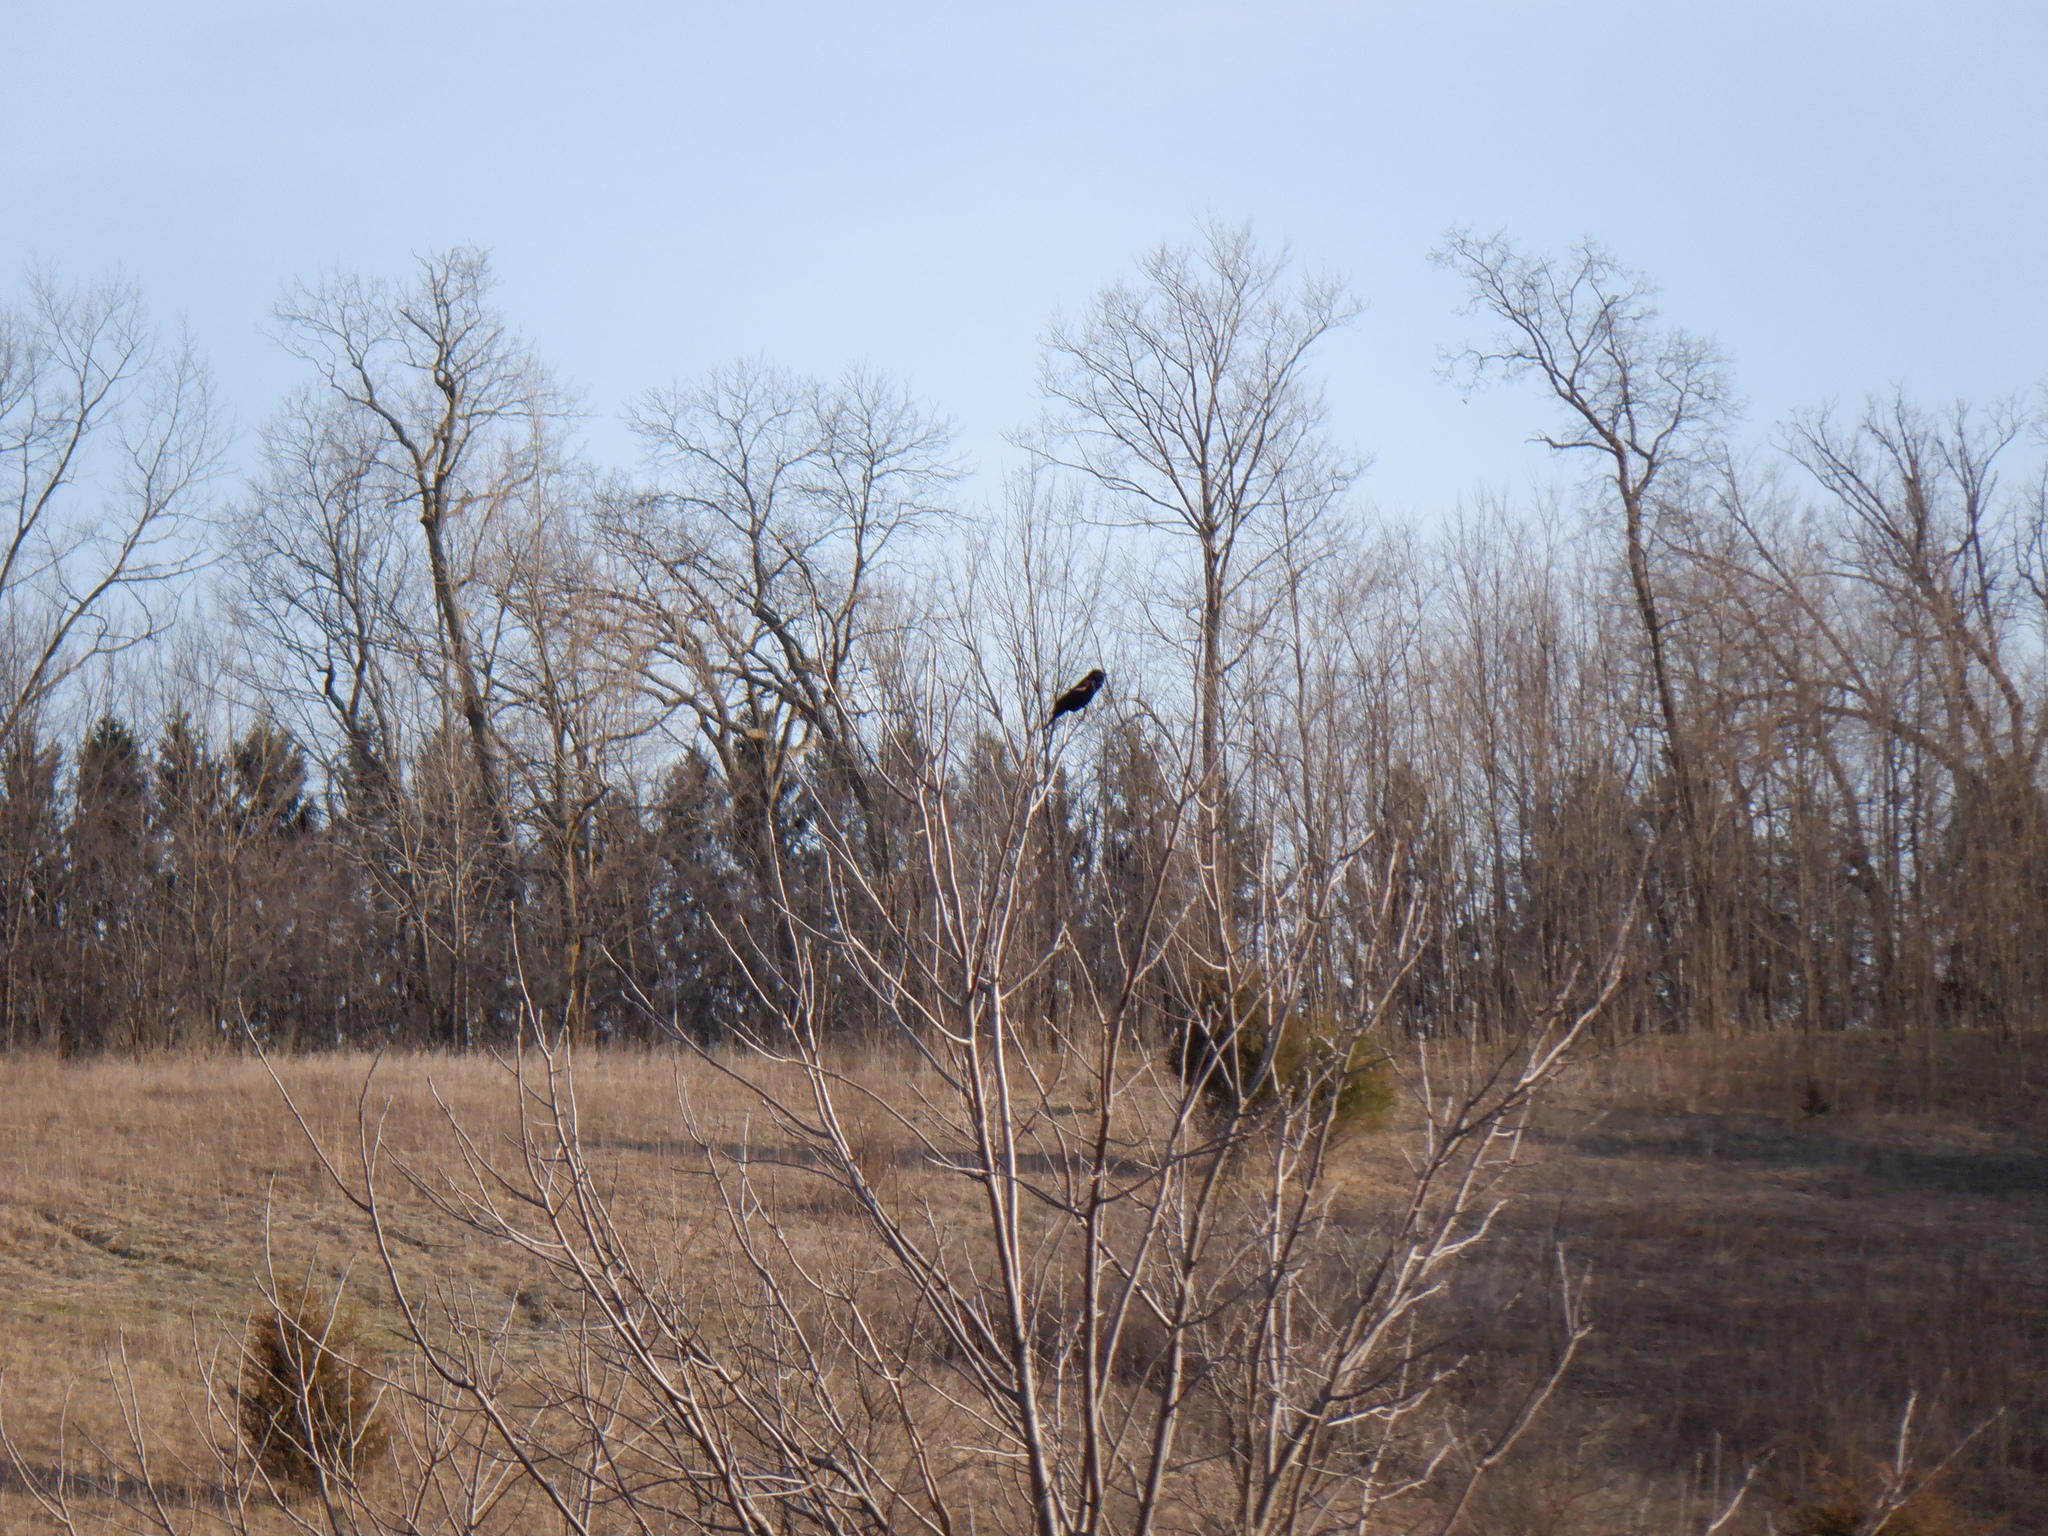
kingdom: Animalia
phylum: Chordata
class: Aves
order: Passeriformes
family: Icteridae
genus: Agelaius
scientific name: Agelaius phoeniceus
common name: Red-winged blackbird
